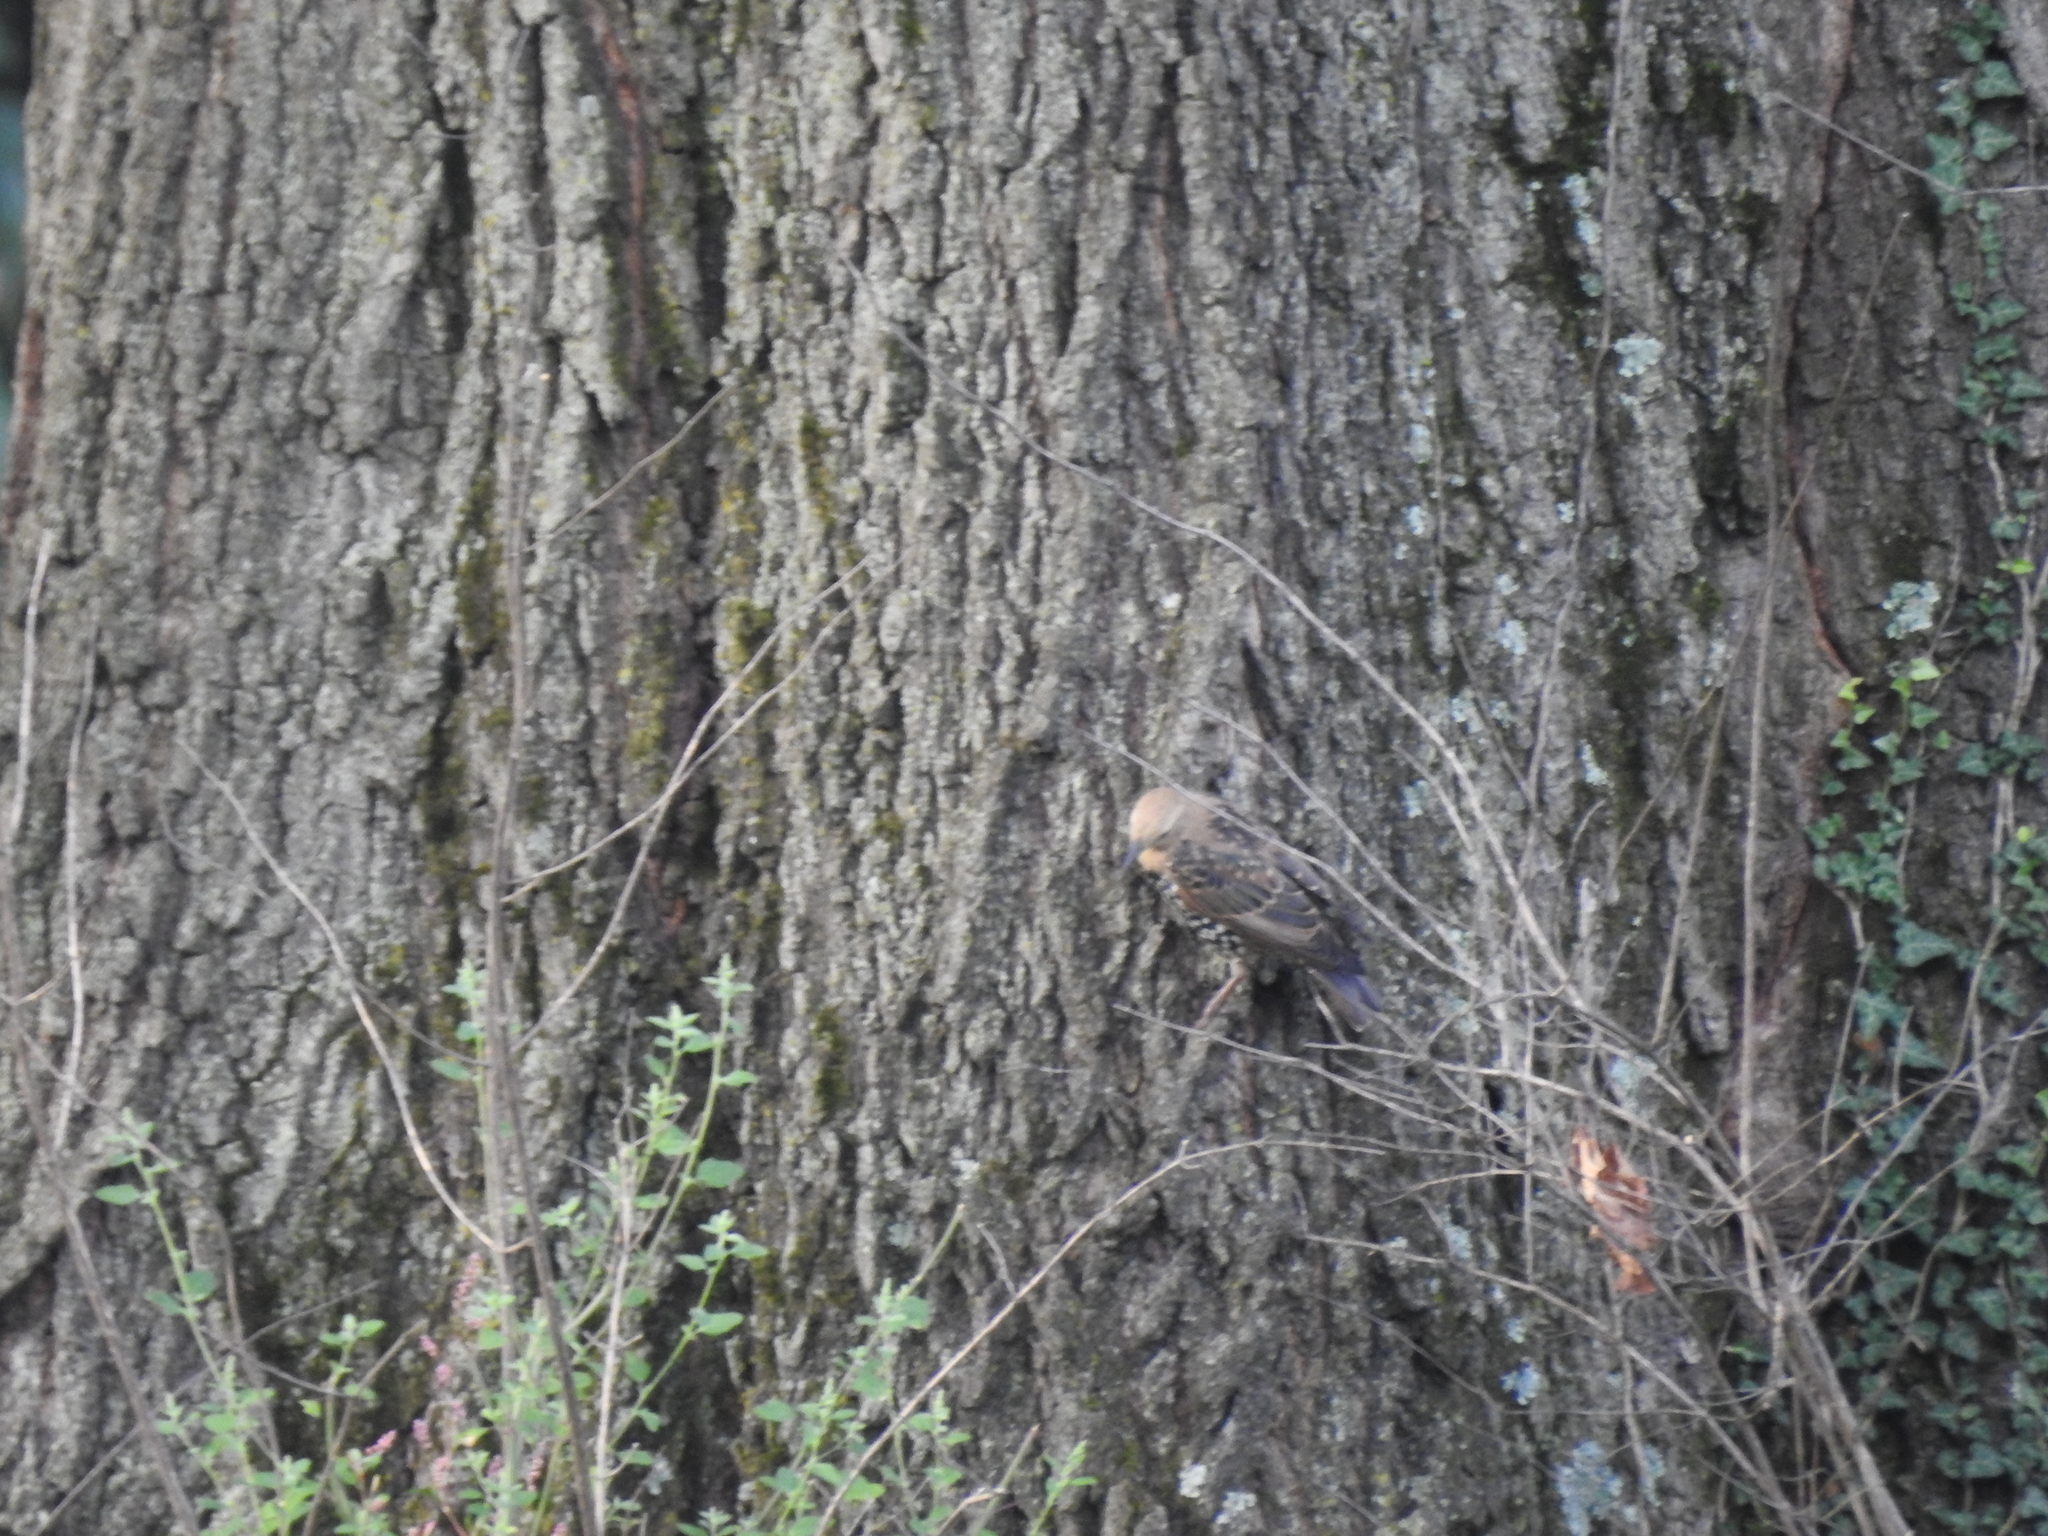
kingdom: Animalia
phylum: Chordata
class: Aves
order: Passeriformes
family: Sturnidae
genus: Sturnus
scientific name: Sturnus vulgaris
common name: Common starling
